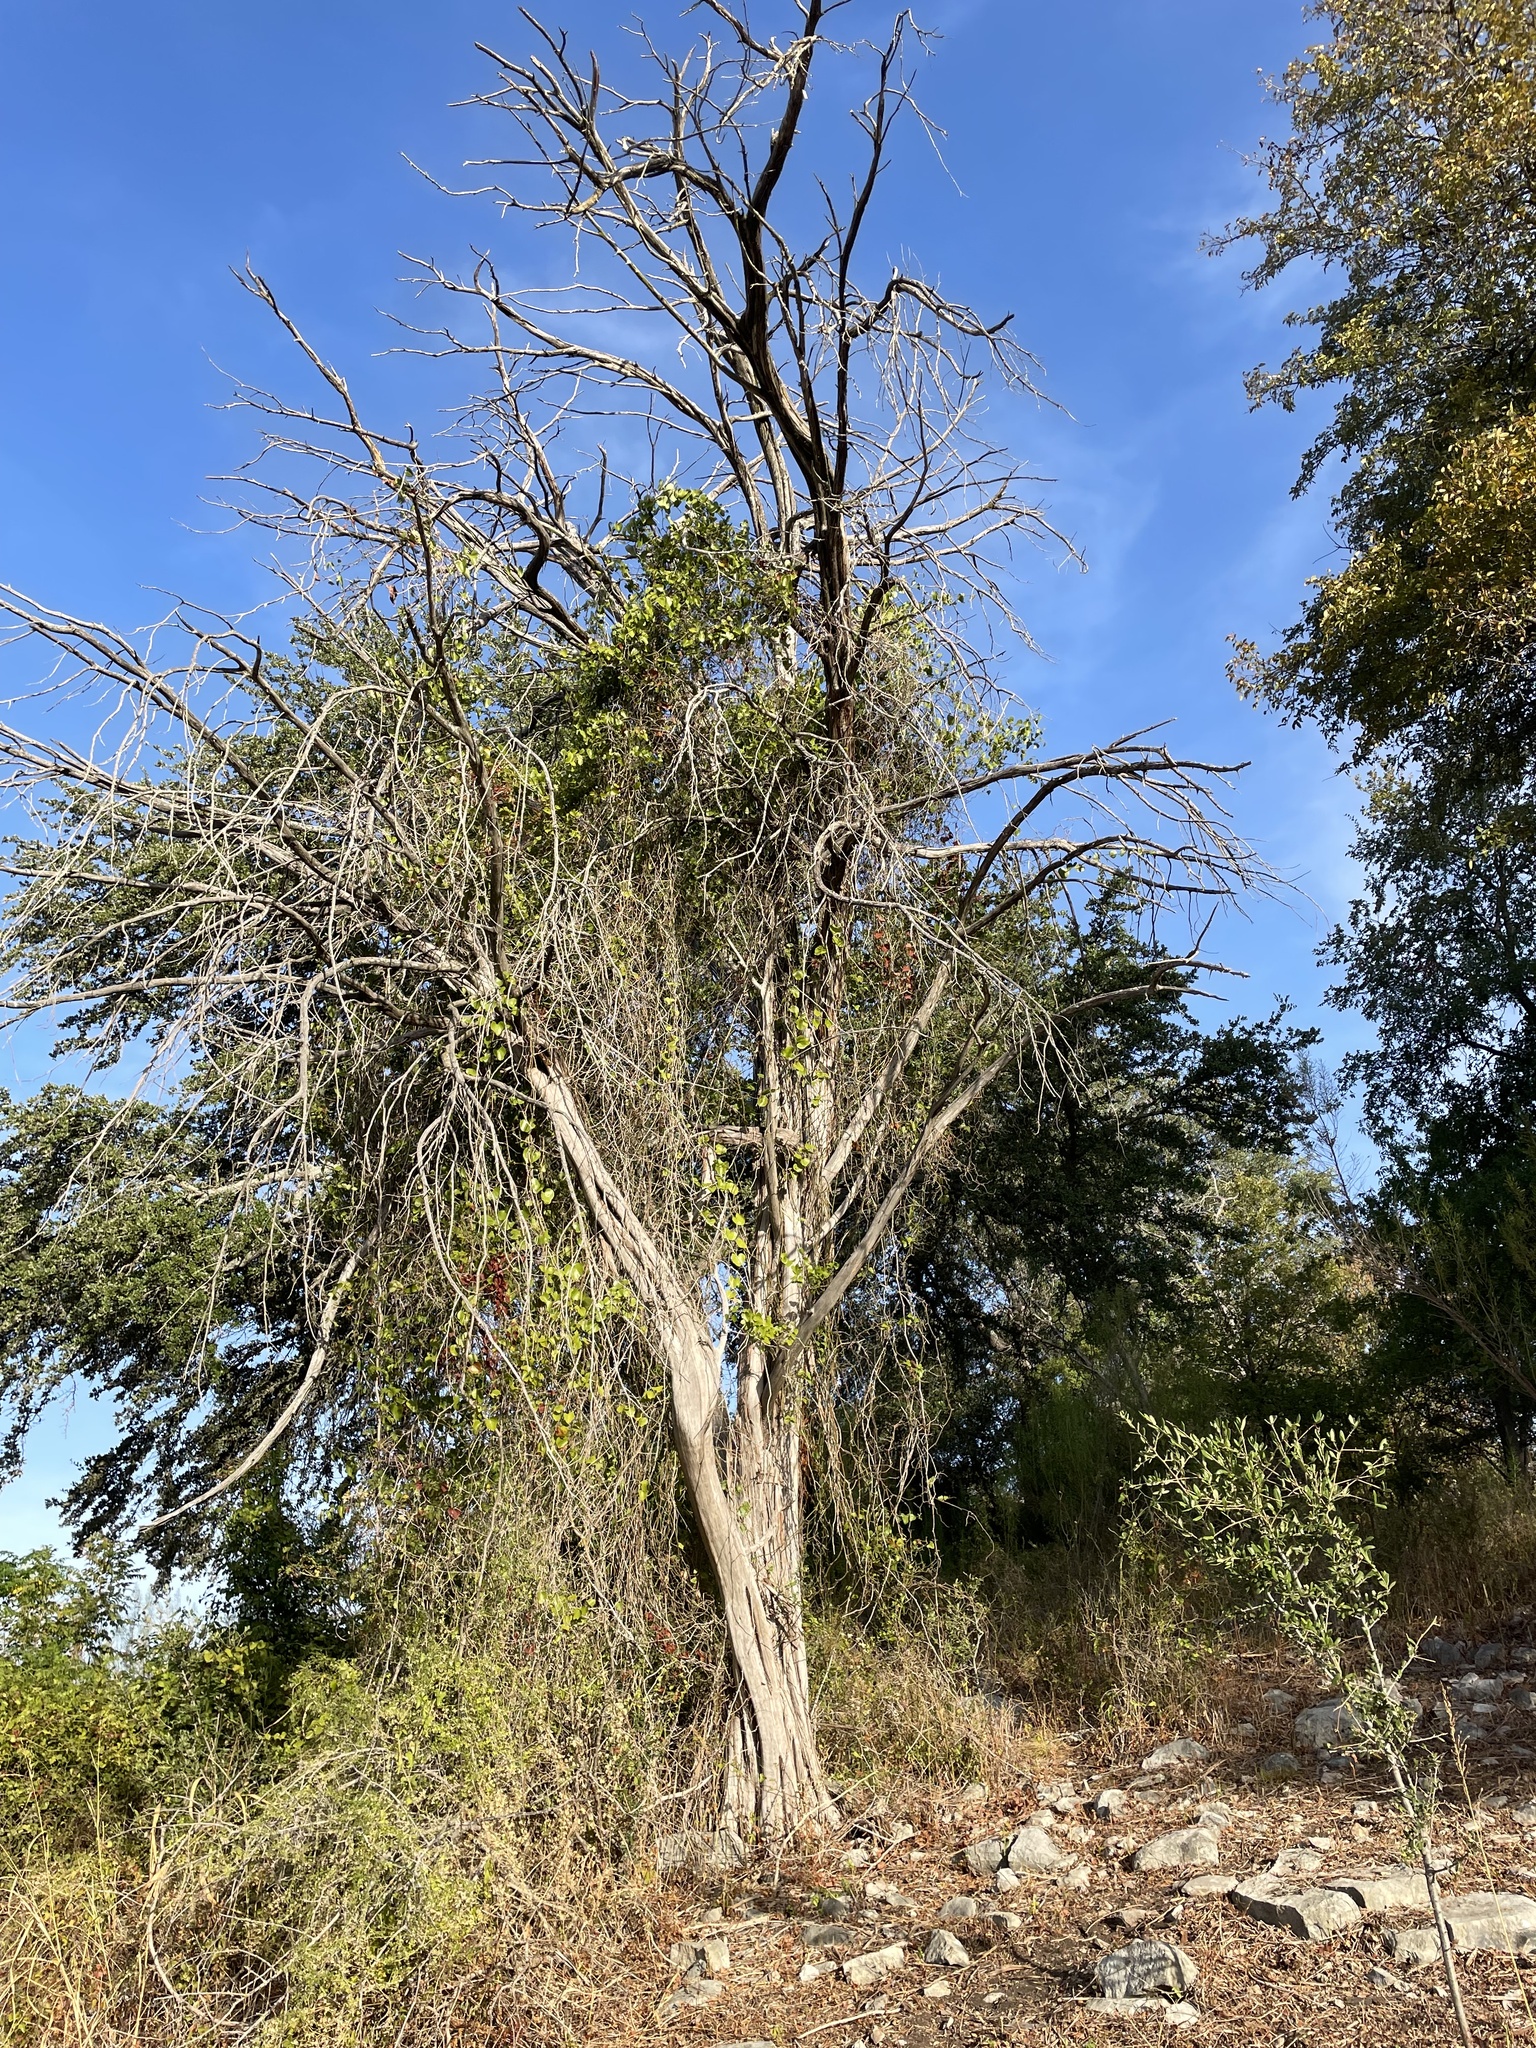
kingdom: Plantae
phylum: Tracheophyta
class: Pinopsida
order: Pinales
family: Cupressaceae
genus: Juniperus
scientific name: Juniperus ashei
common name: Mexican juniper
